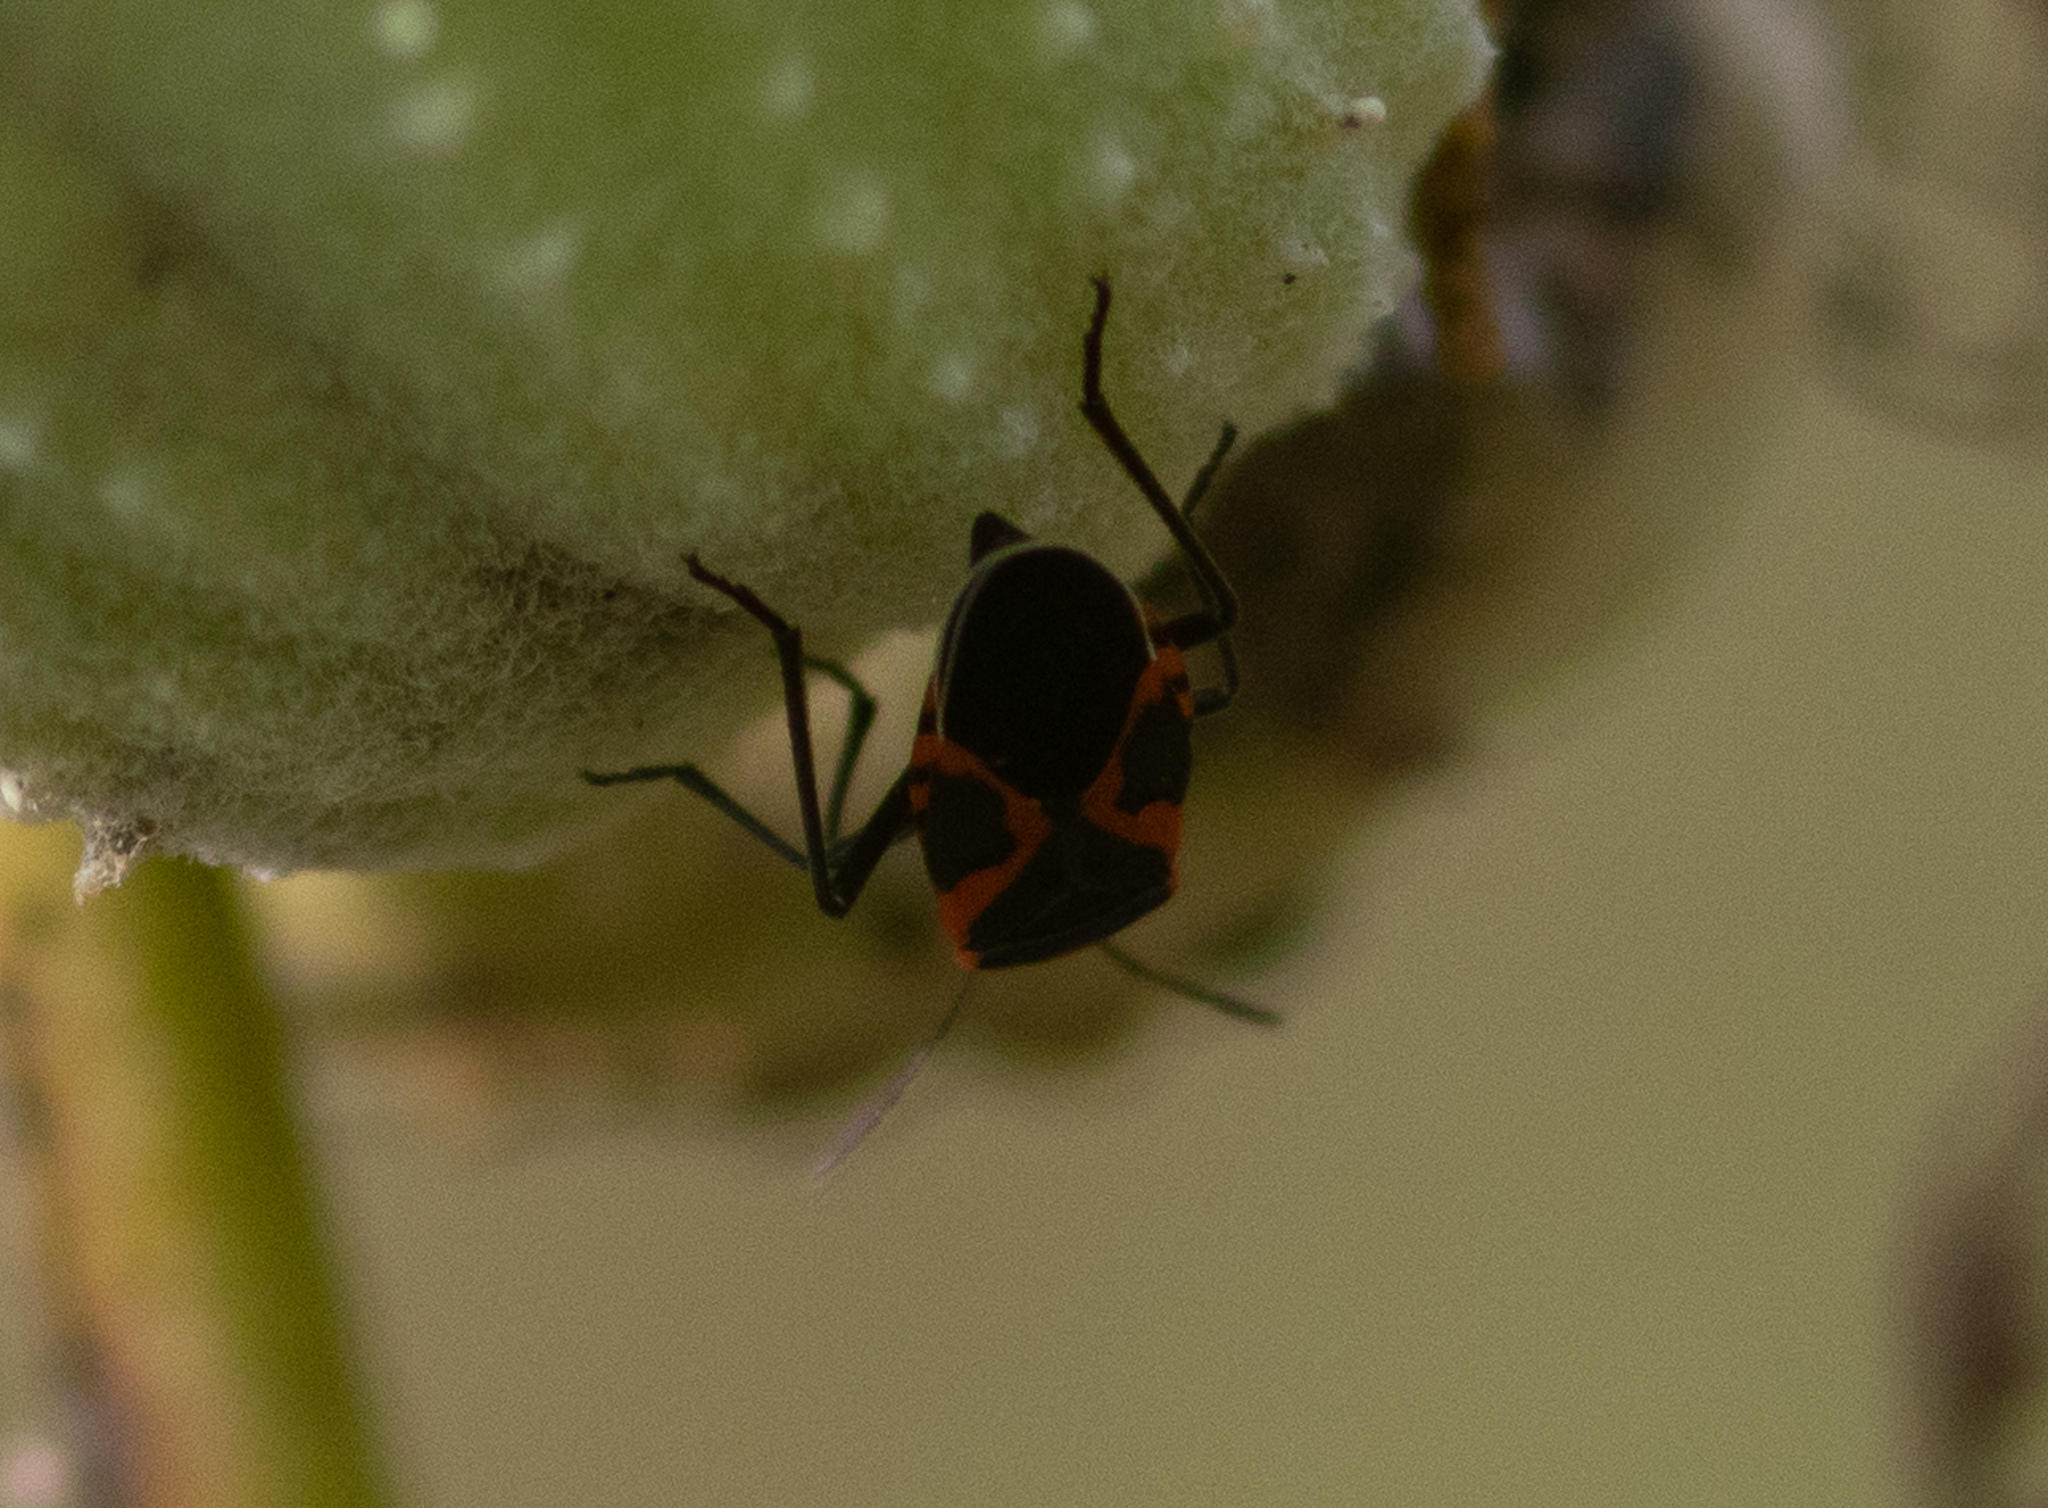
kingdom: Animalia
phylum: Arthropoda
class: Insecta
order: Hemiptera
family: Lygaeidae
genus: Lygaeus
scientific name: Lygaeus kalmii
